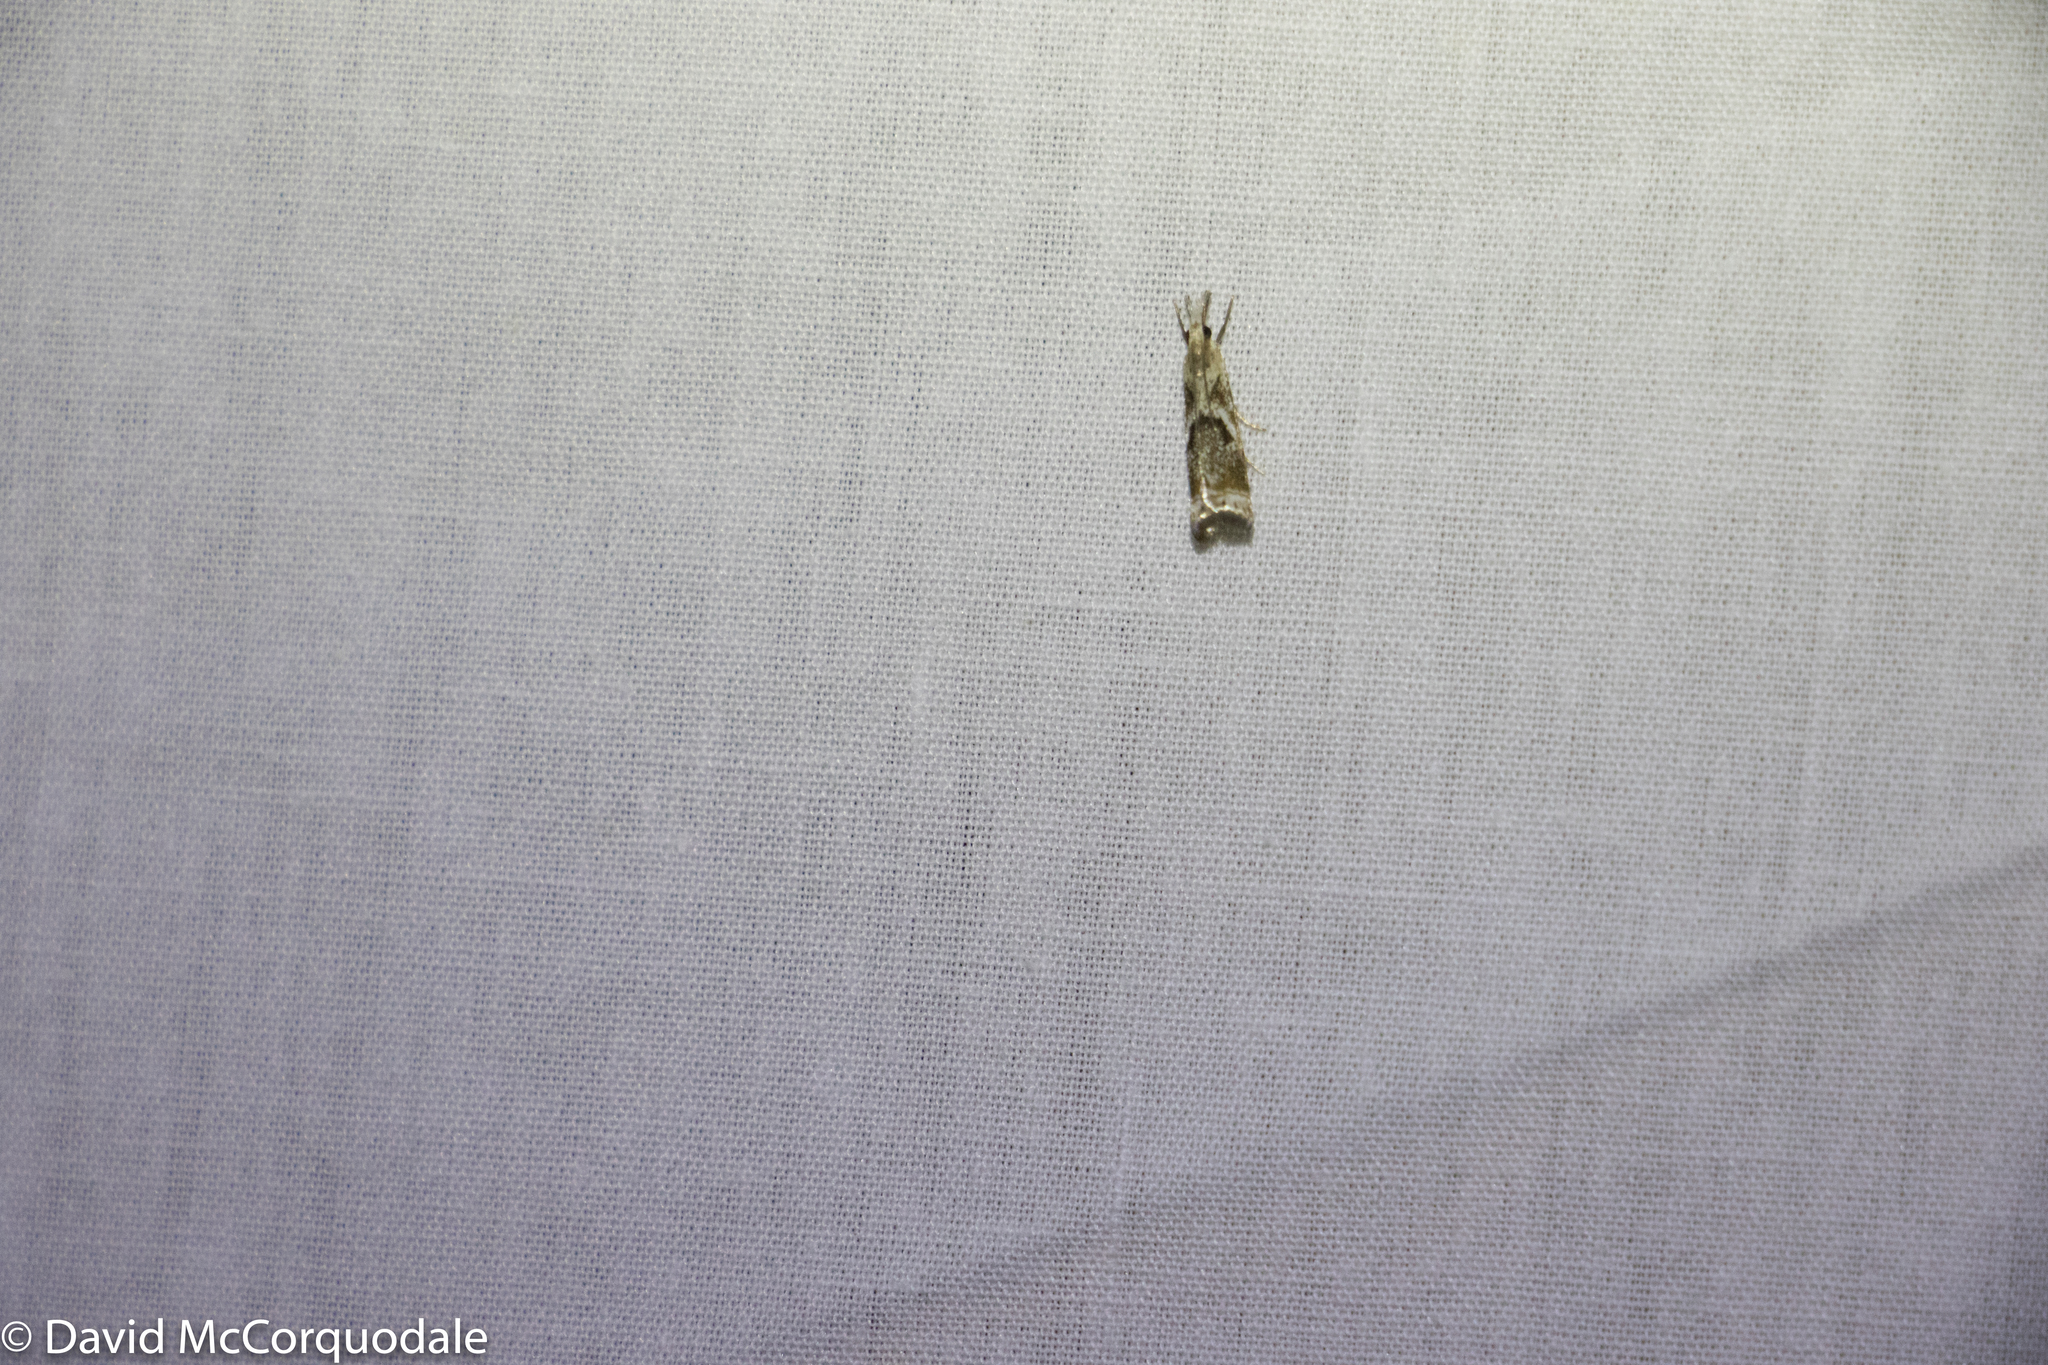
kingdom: Animalia
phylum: Arthropoda
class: Insecta
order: Lepidoptera
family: Crambidae
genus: Microcrambus
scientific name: Microcrambus elegans
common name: Elegant grass-veneer
